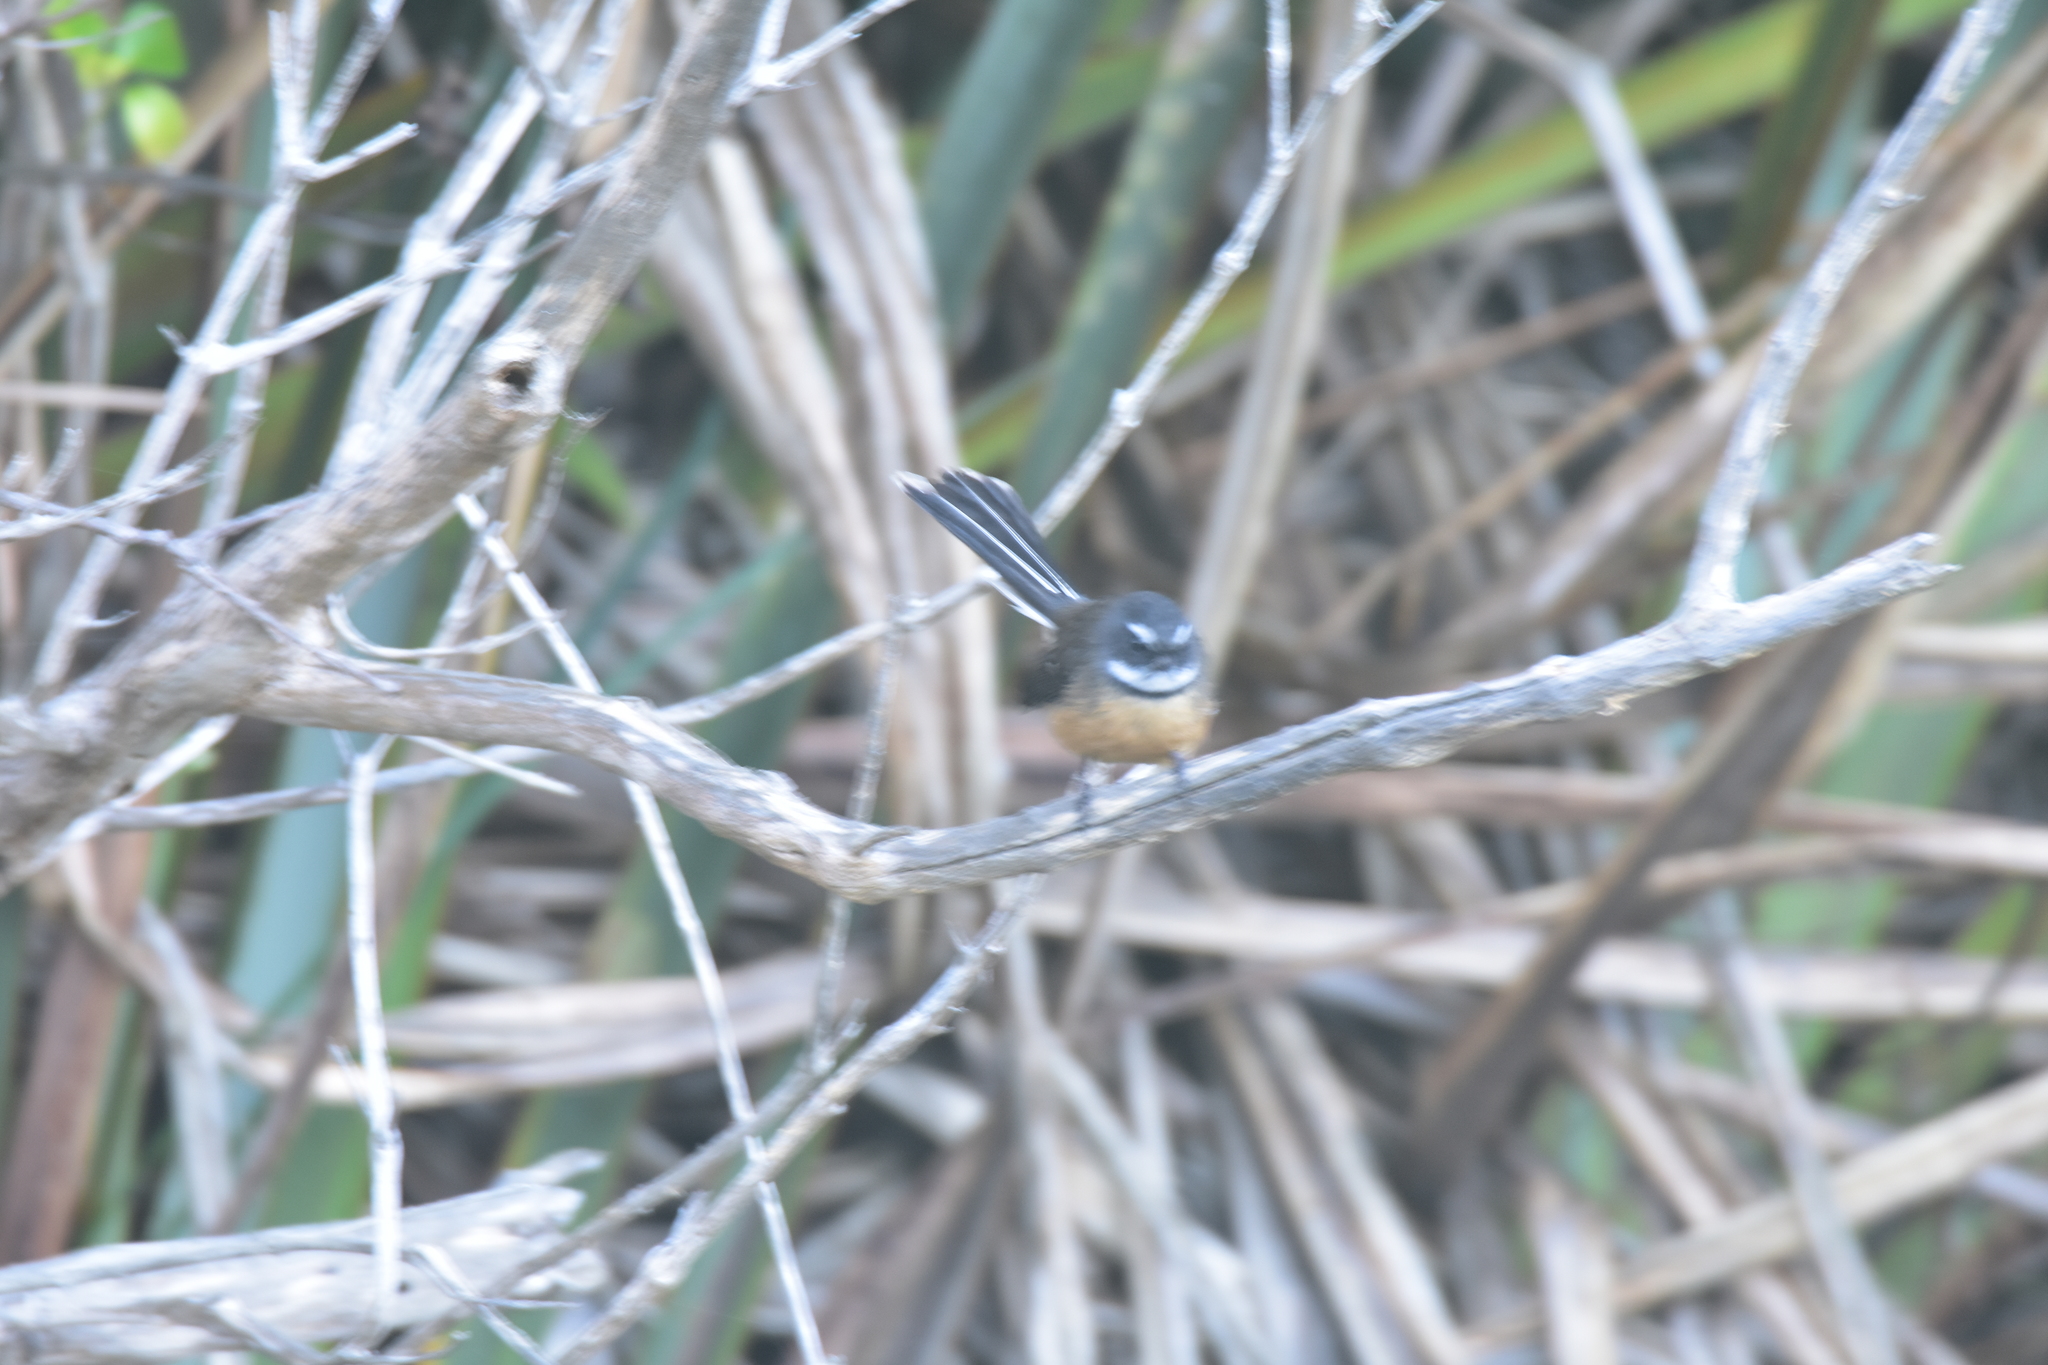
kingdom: Animalia
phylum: Chordata
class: Aves
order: Passeriformes
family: Rhipiduridae
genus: Rhipidura
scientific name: Rhipidura fuliginosa
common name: New zealand fantail
